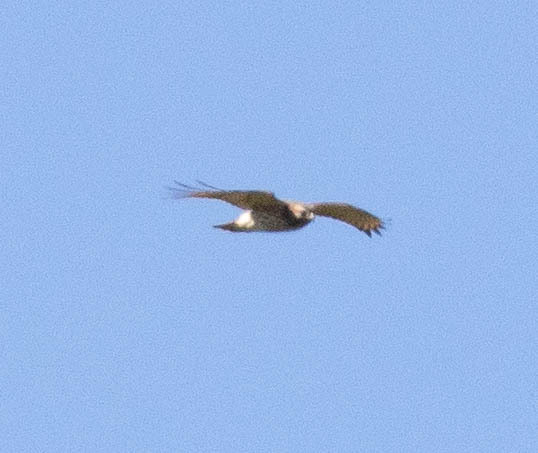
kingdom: Animalia
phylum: Chordata
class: Aves
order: Accipitriformes
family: Accipitridae
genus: Buteo
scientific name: Buteo platypterus
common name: Broad-winged hawk
